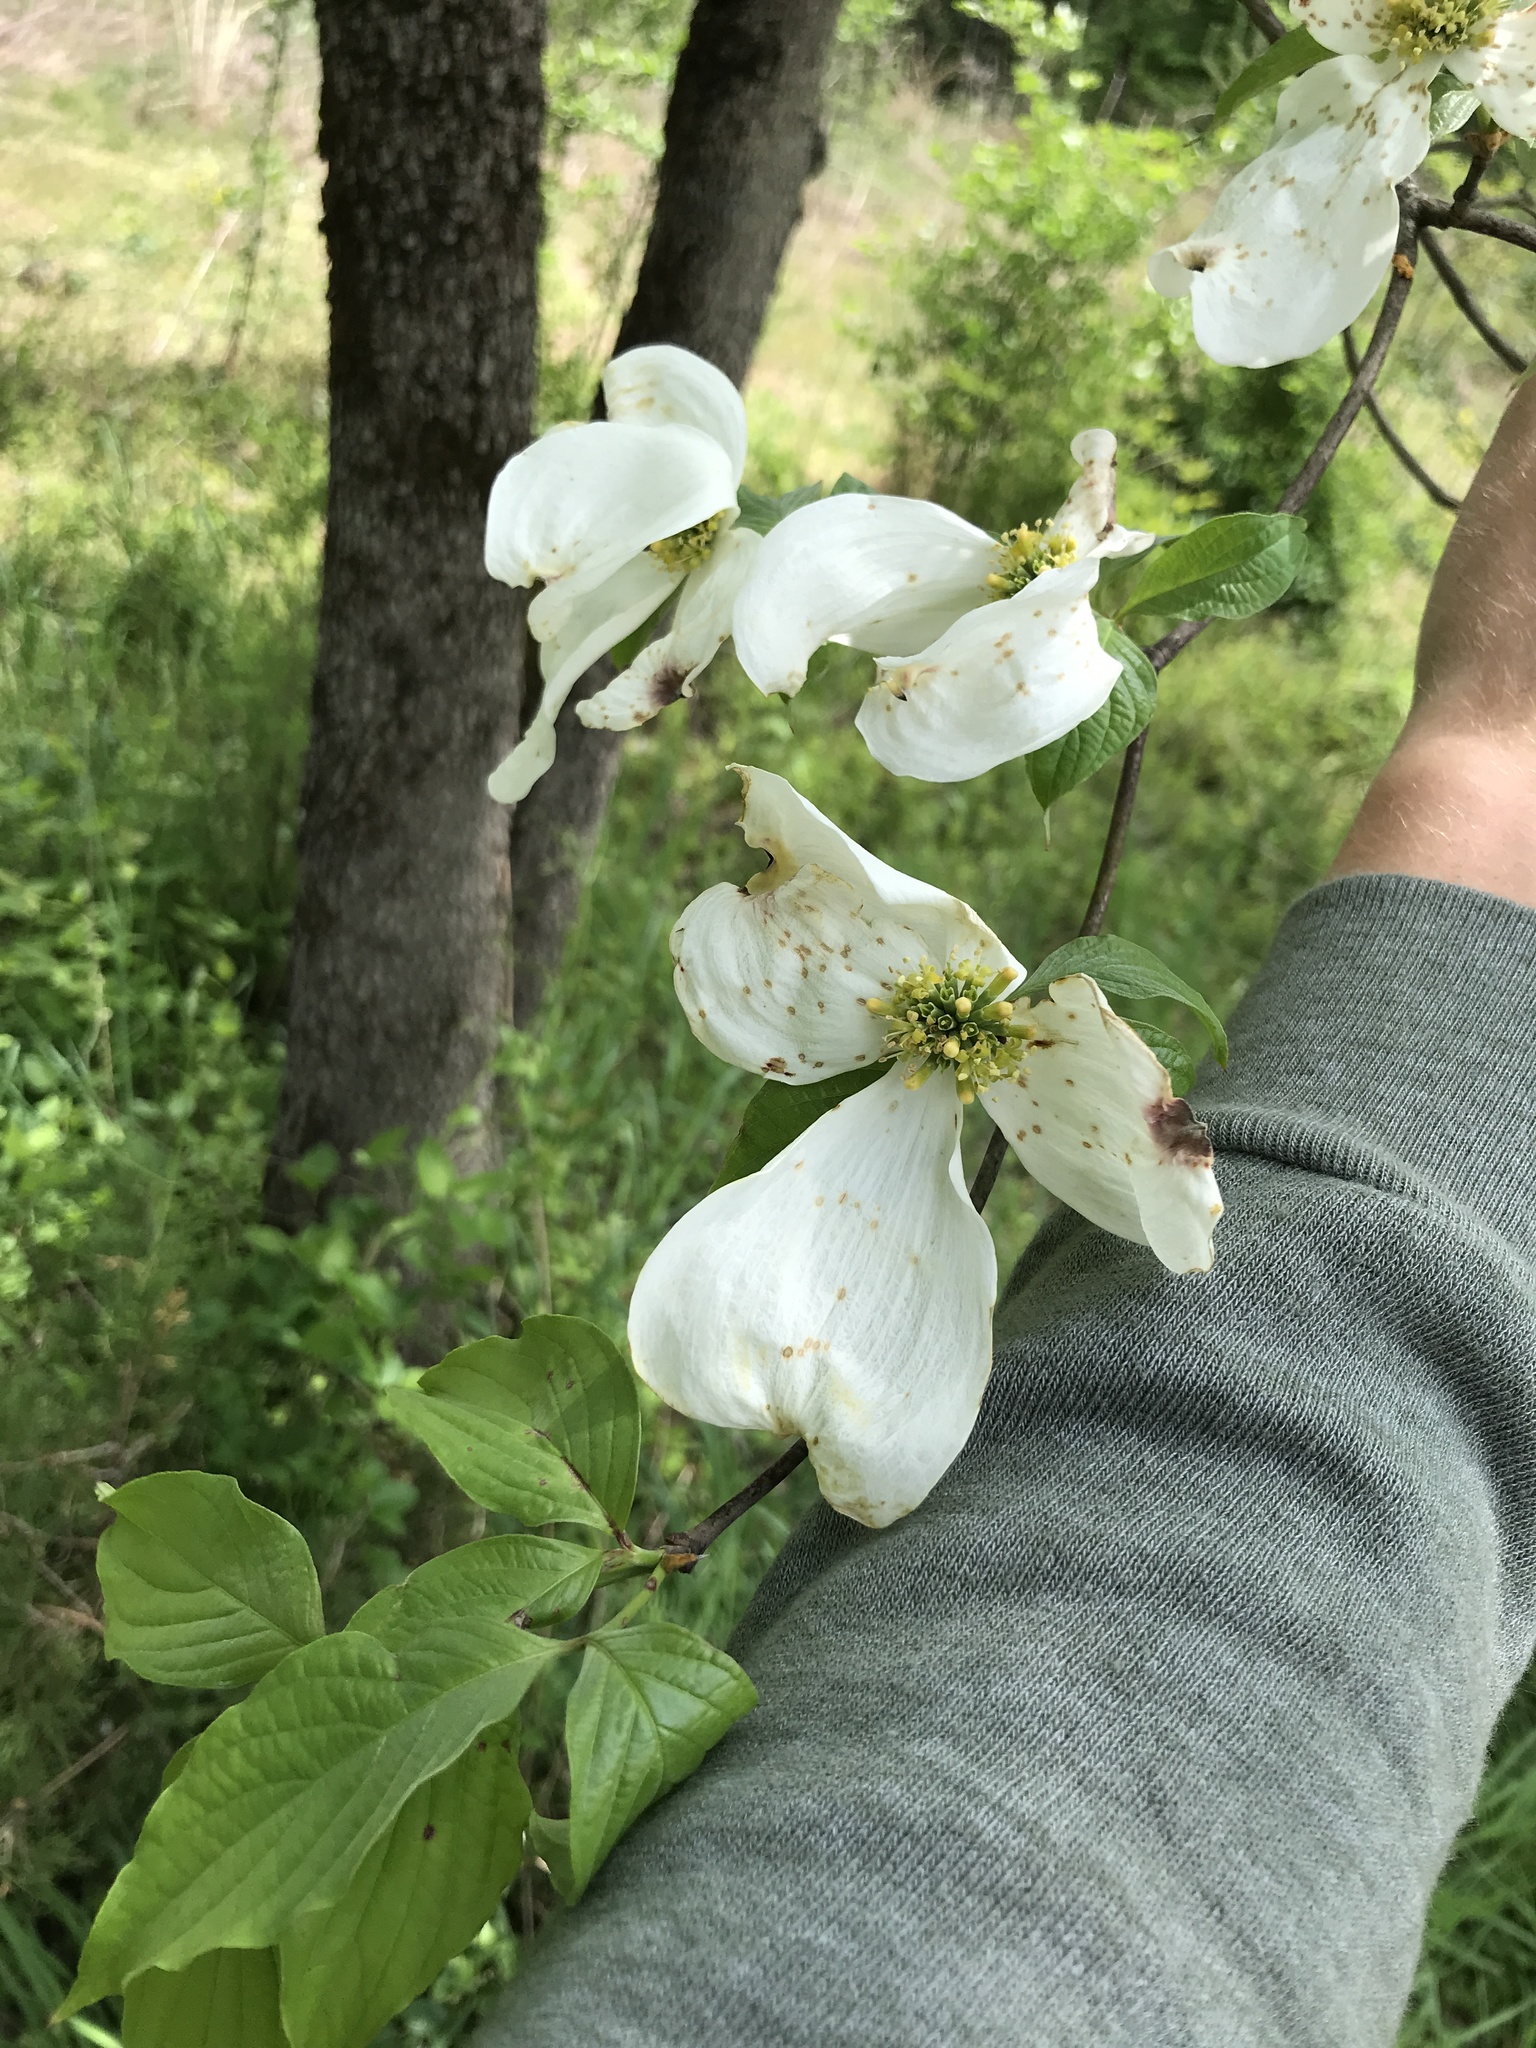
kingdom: Plantae
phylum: Tracheophyta
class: Magnoliopsida
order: Cornales
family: Cornaceae
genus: Cornus
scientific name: Cornus florida
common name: Flowering dogwood
